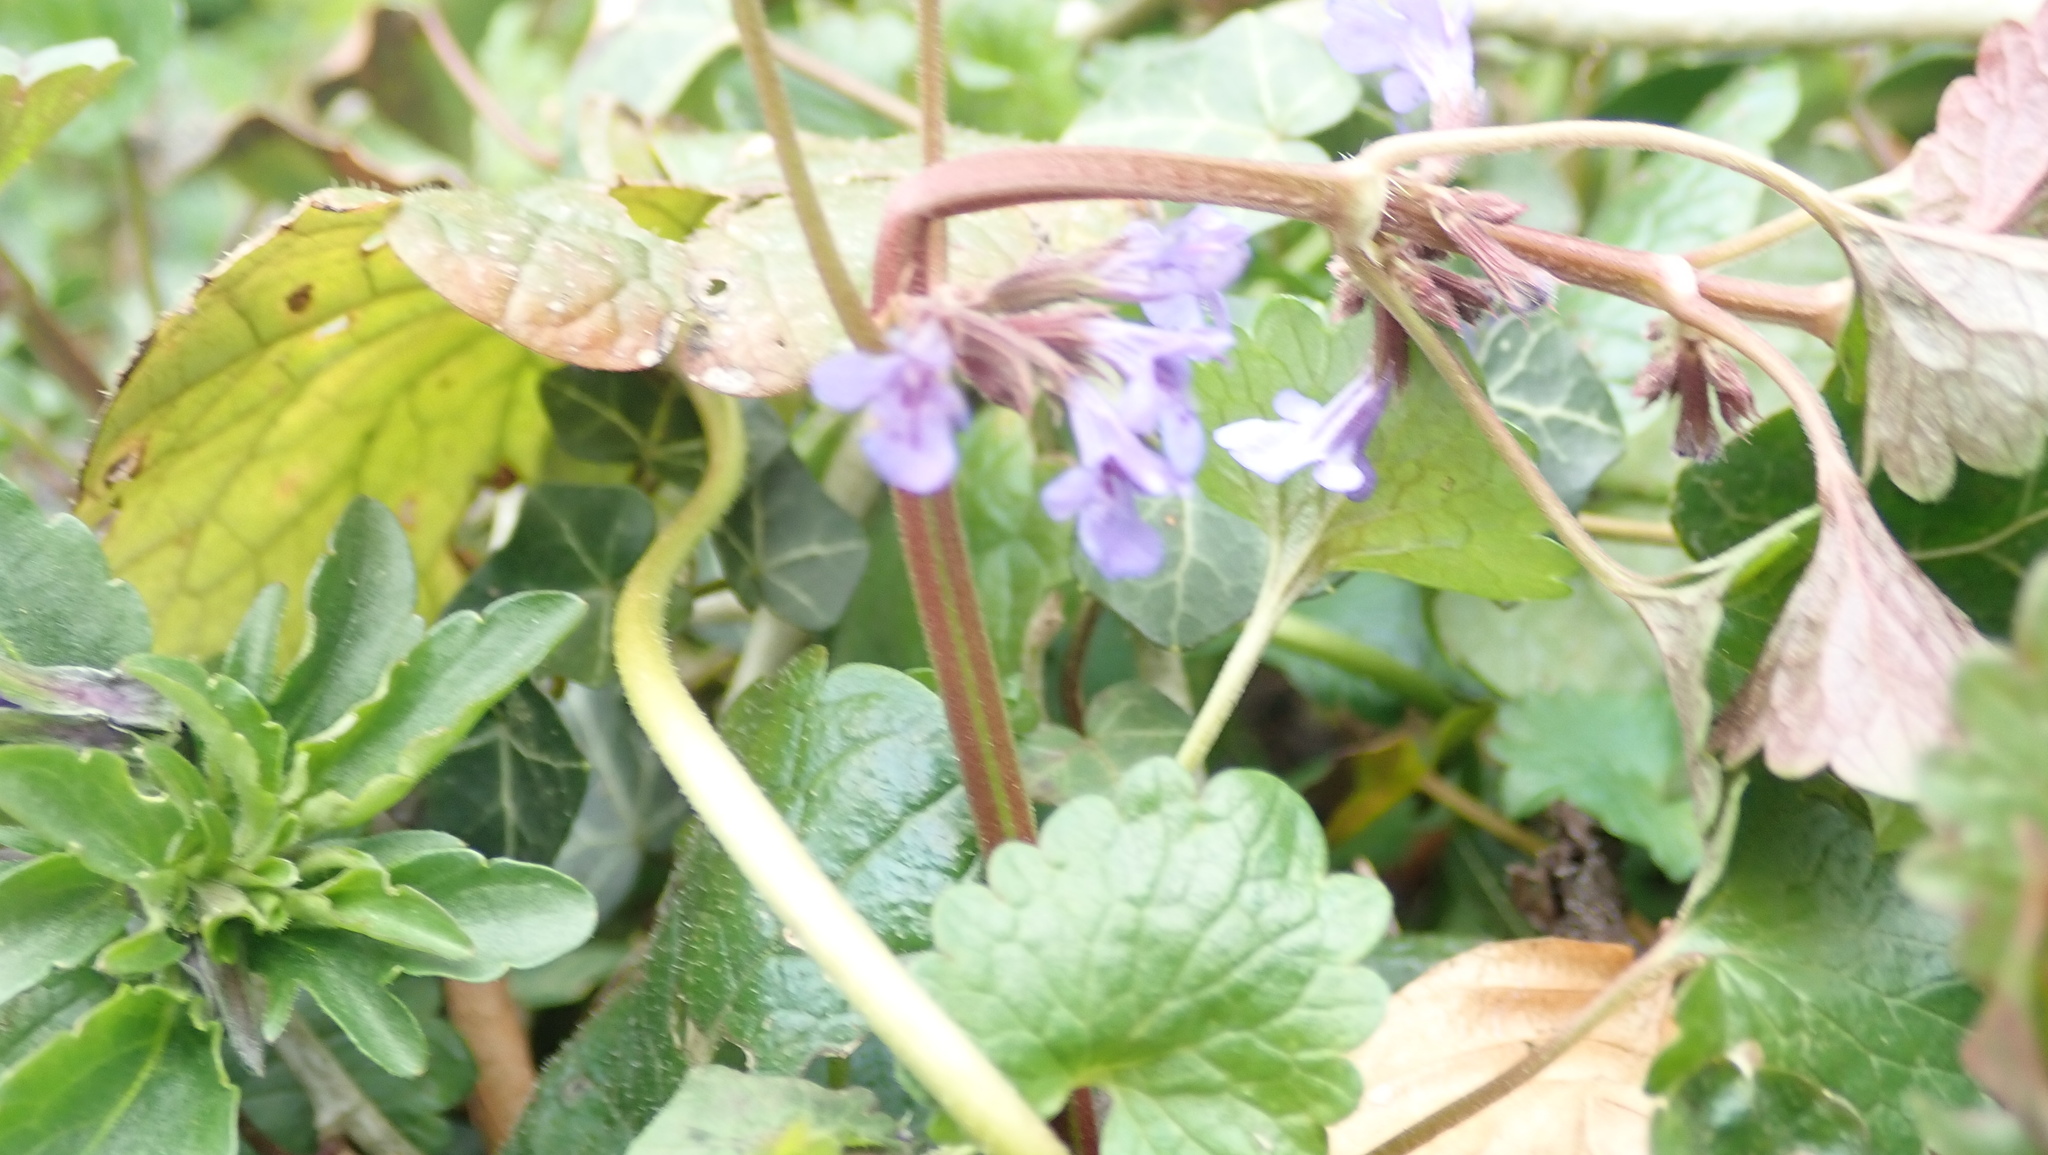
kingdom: Plantae
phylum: Tracheophyta
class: Magnoliopsida
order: Lamiales
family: Lamiaceae
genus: Glechoma
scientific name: Glechoma hederacea
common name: Ground ivy
